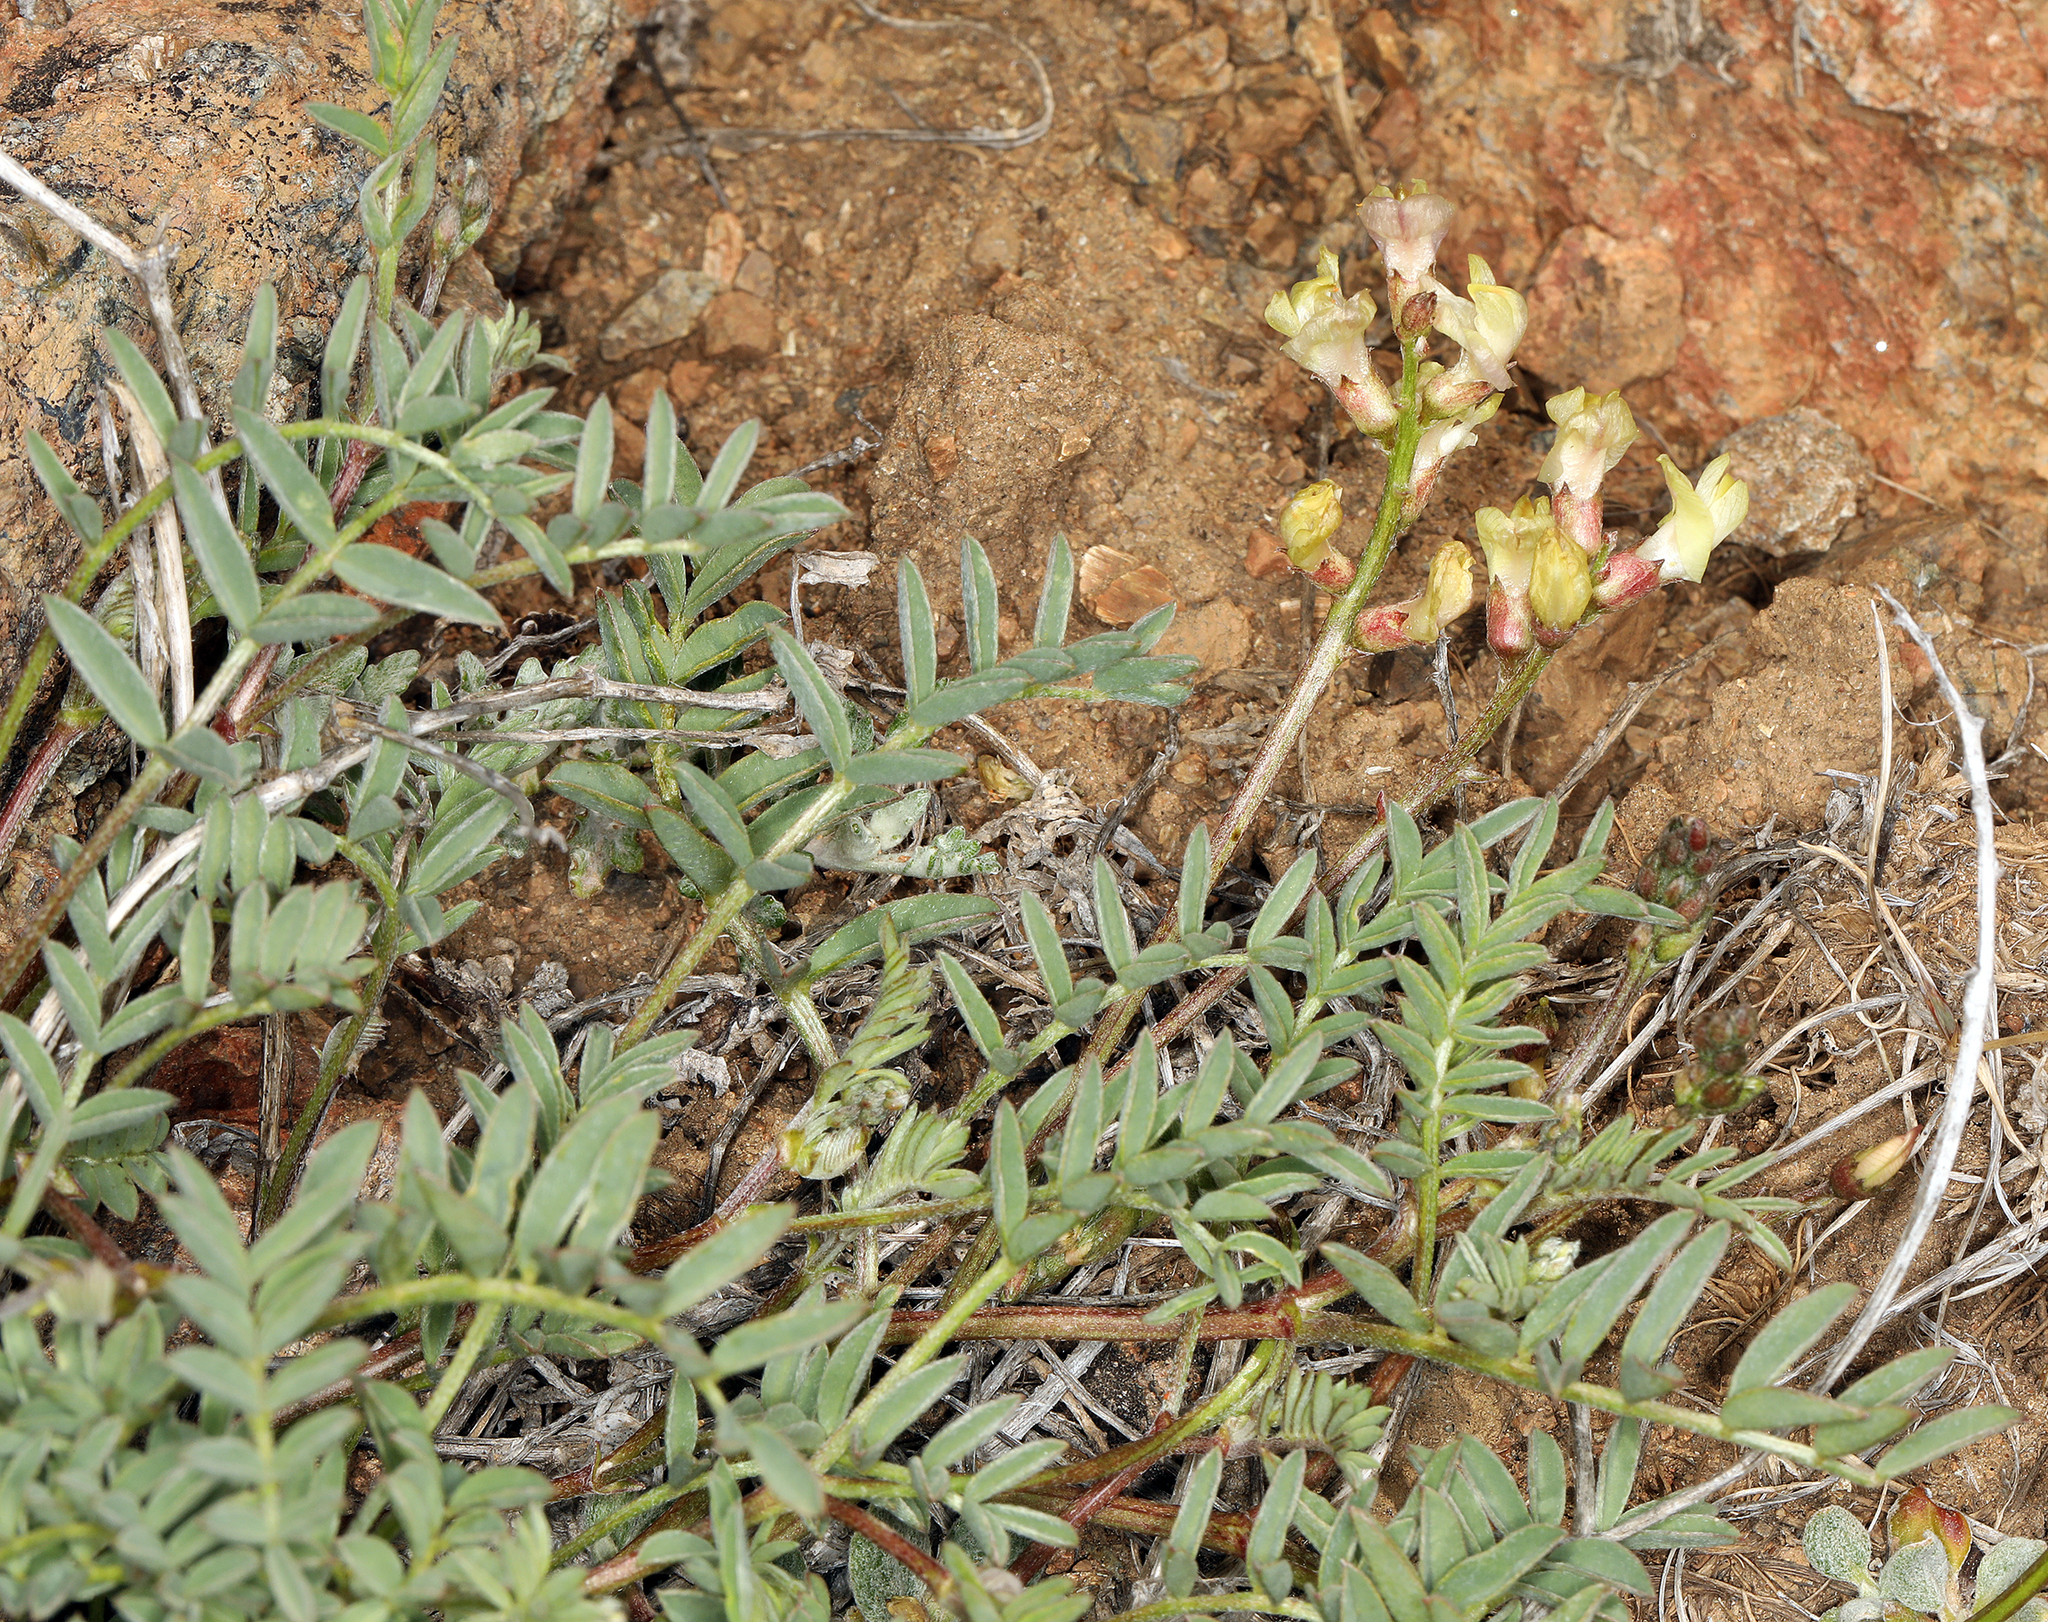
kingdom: Plantae
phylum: Tracheophyta
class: Magnoliopsida
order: Fabales
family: Fabaceae
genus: Astragalus
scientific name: Astragalus whitneyi
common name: Balloonpod milkvetch
